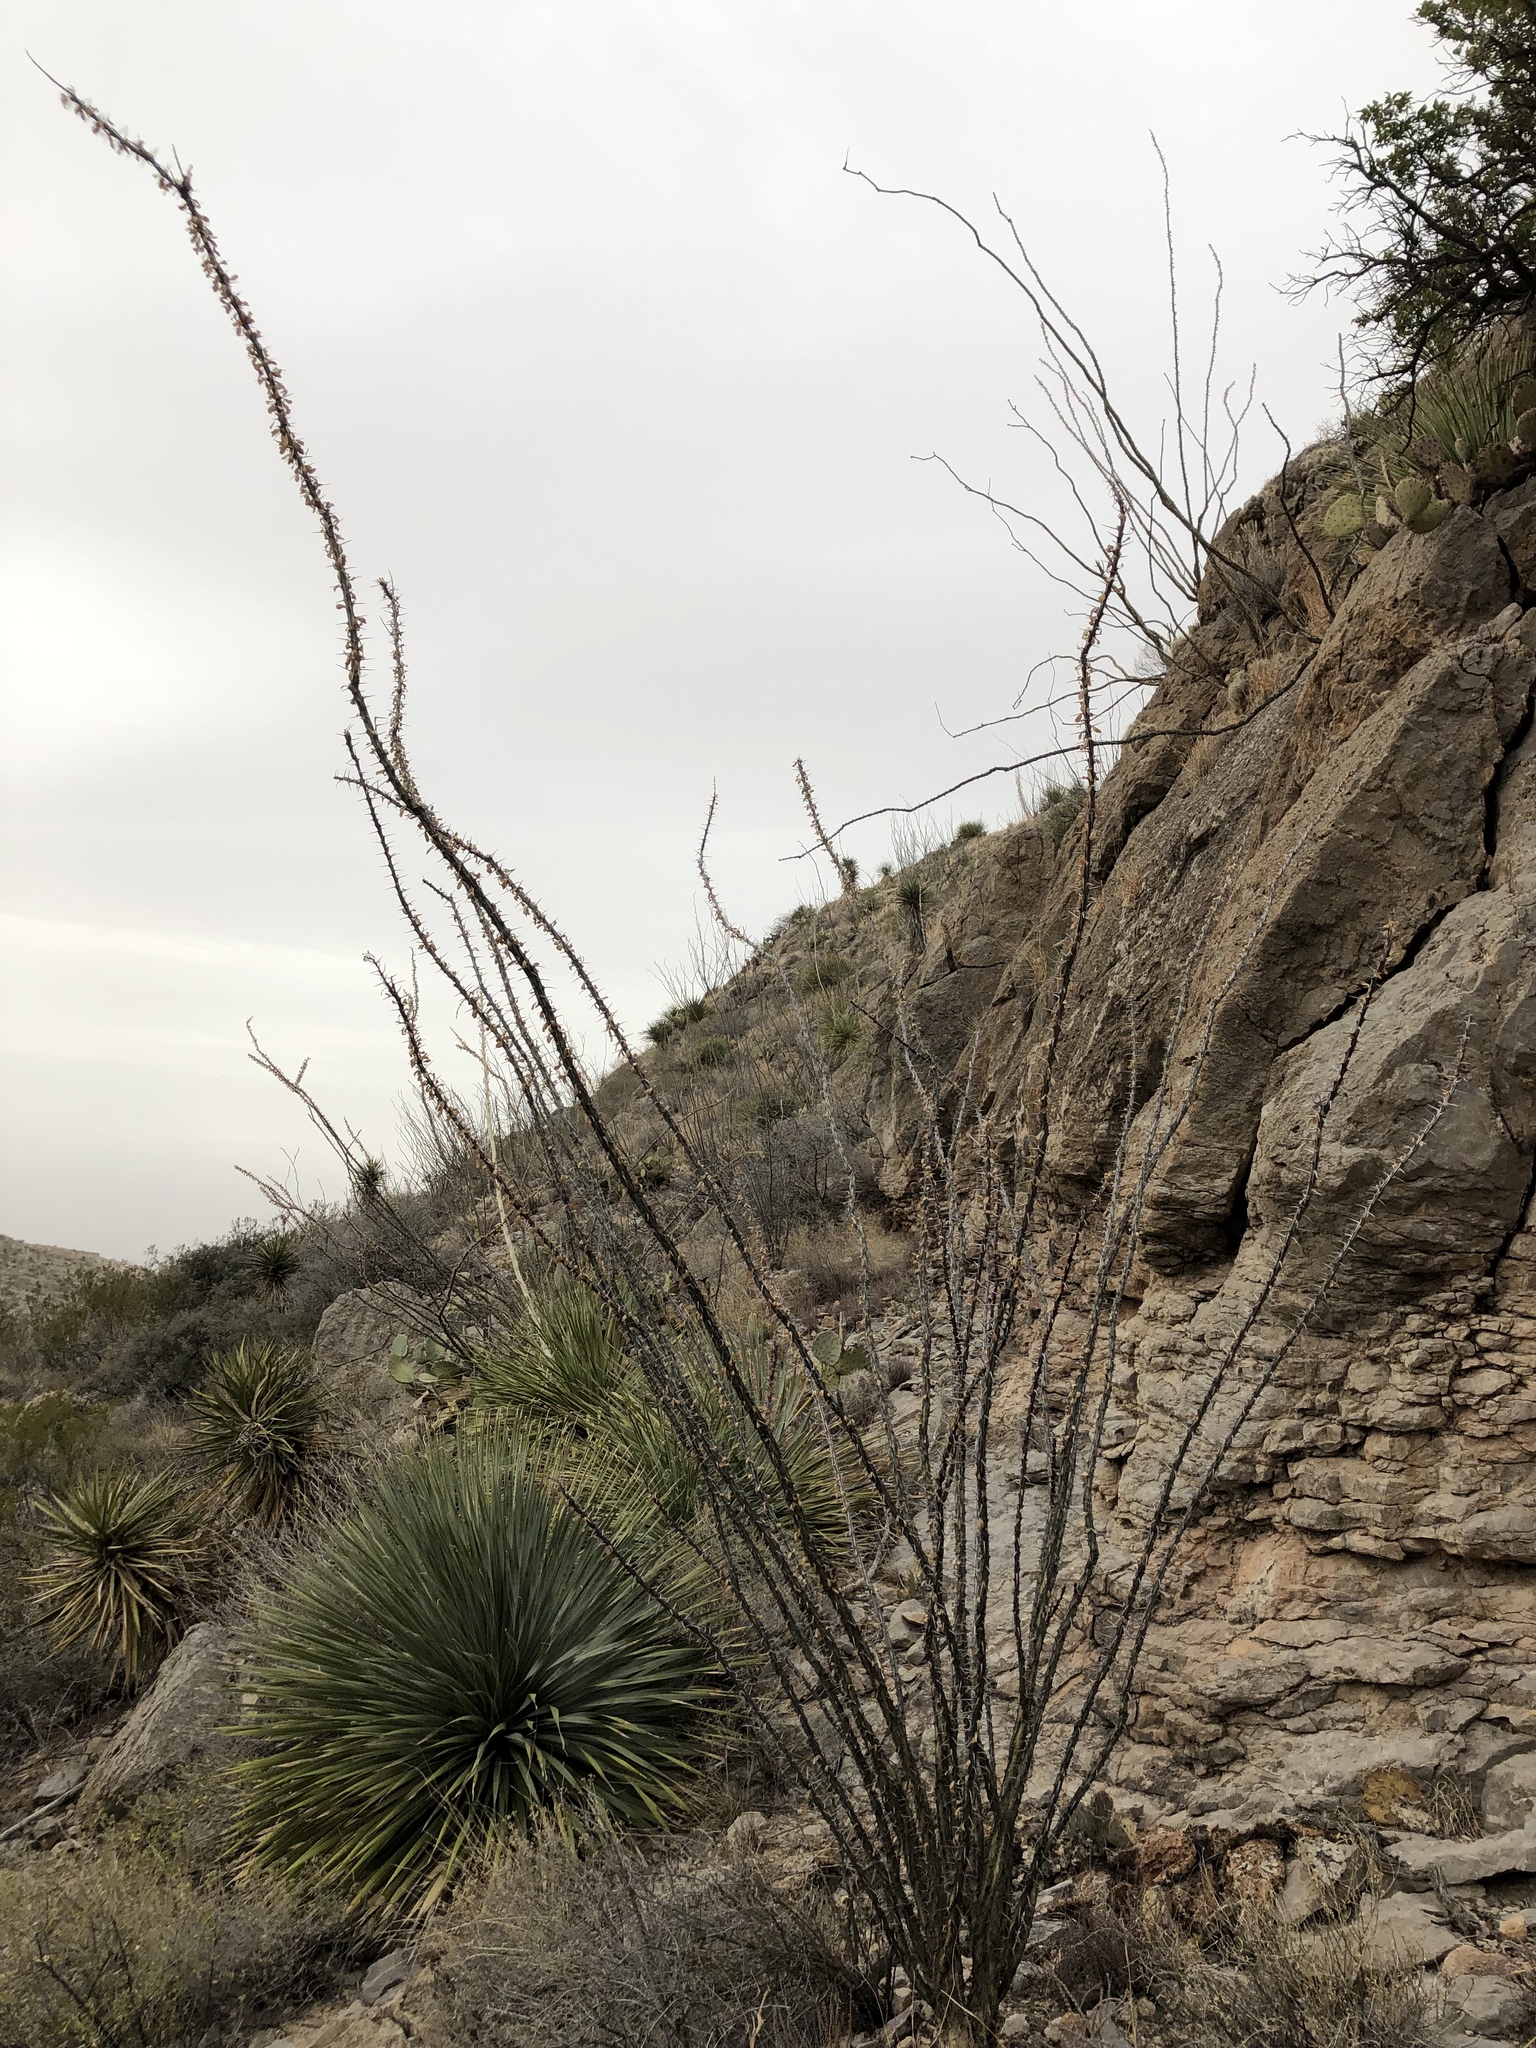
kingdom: Plantae
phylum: Tracheophyta
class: Magnoliopsida
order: Ericales
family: Fouquieriaceae
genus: Fouquieria
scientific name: Fouquieria splendens
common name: Vine-cactus
